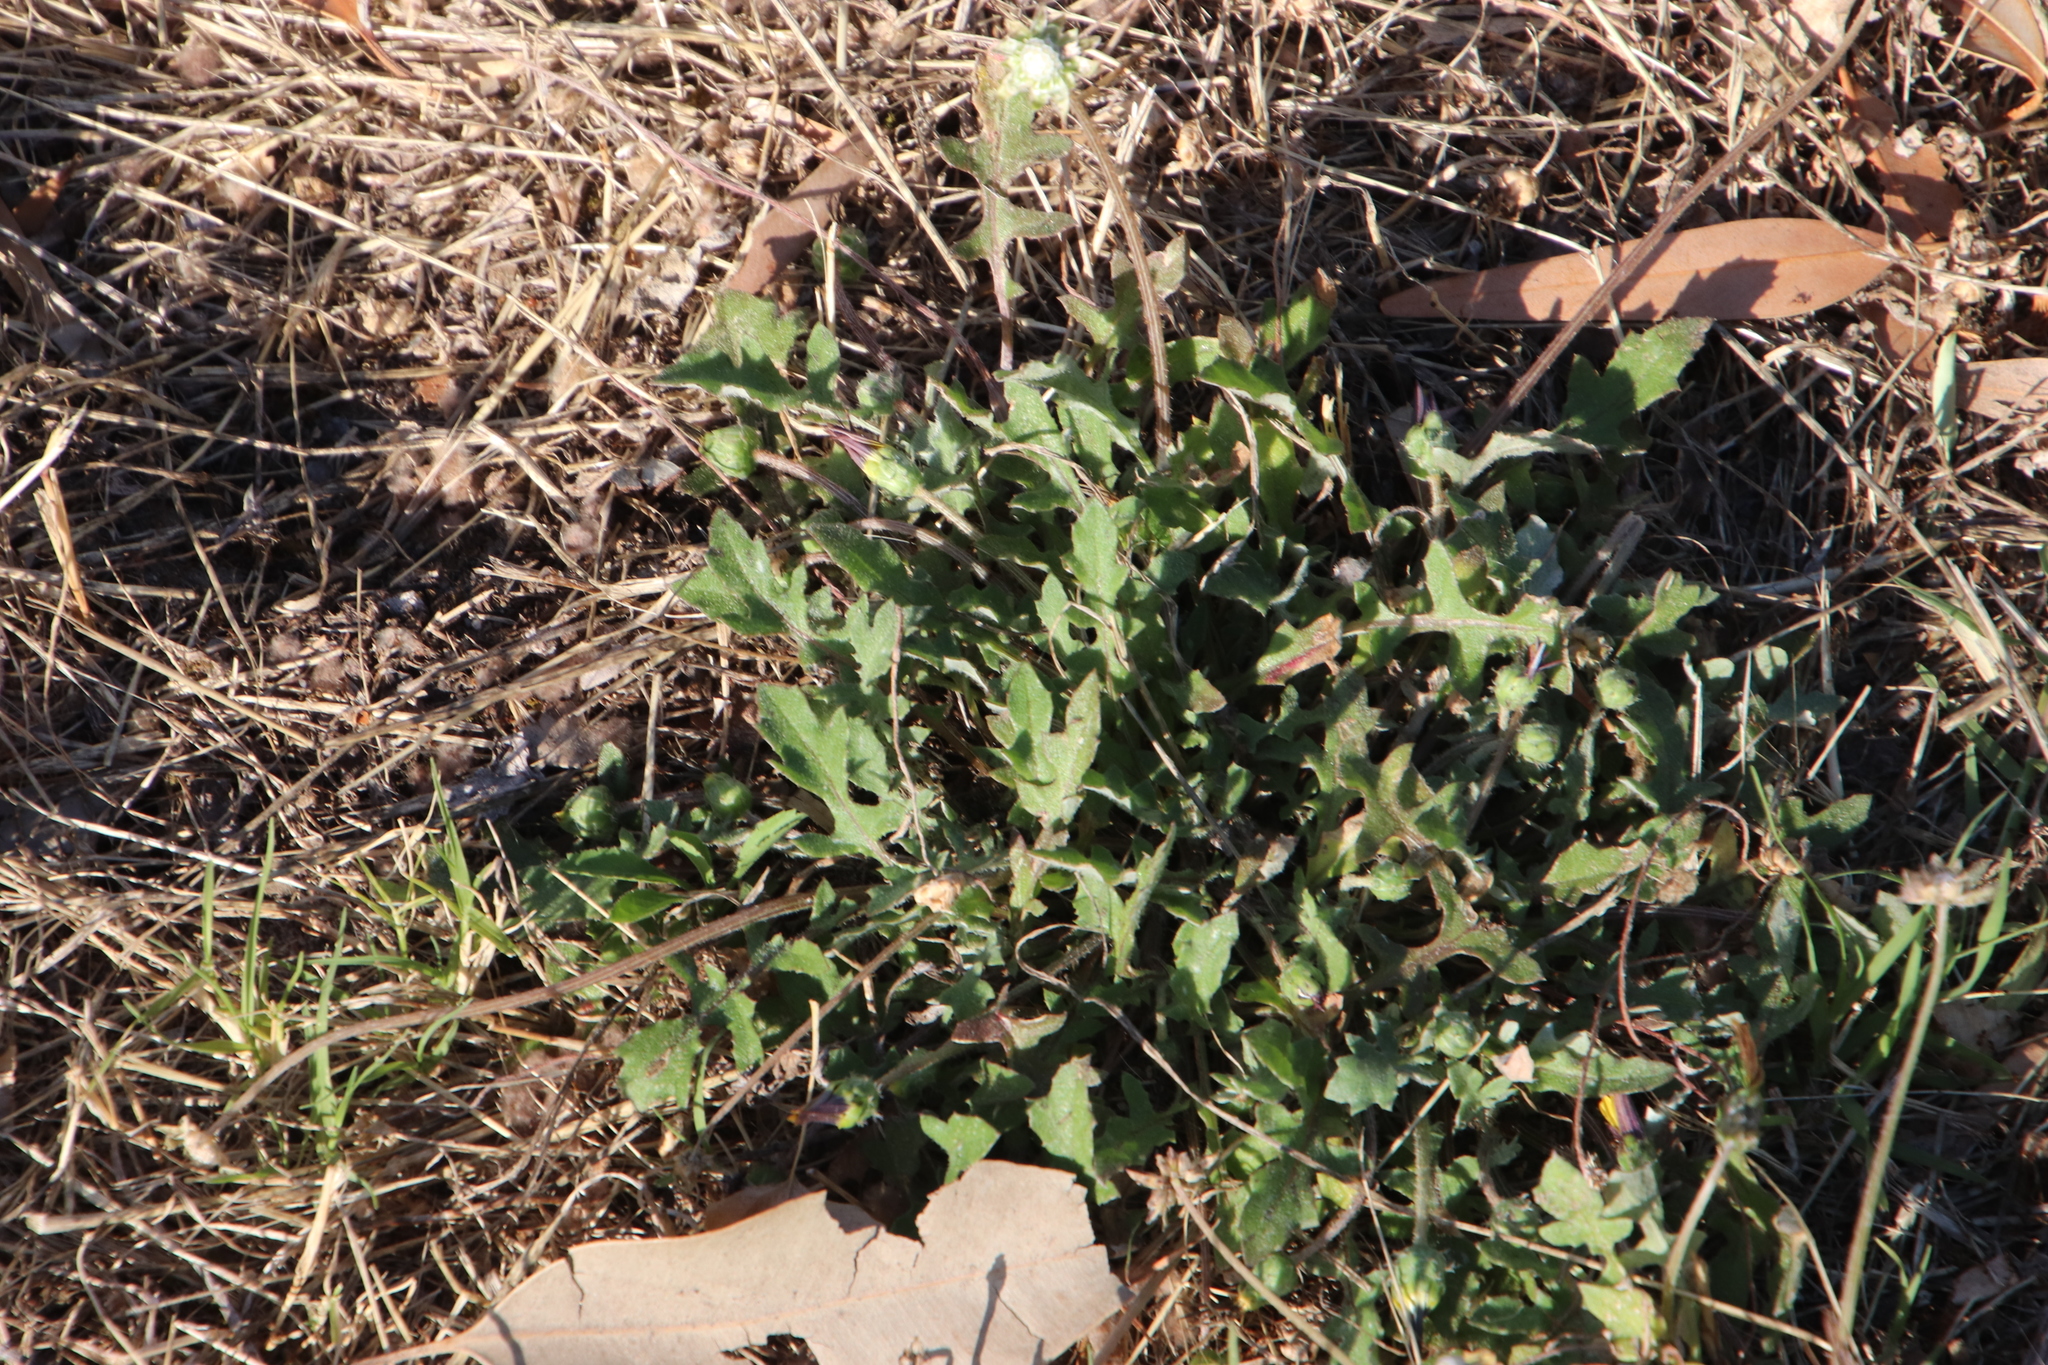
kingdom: Plantae
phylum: Tracheophyta
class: Magnoliopsida
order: Asterales
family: Asteraceae
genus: Arctotheca
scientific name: Arctotheca calendula
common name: Capeweed
